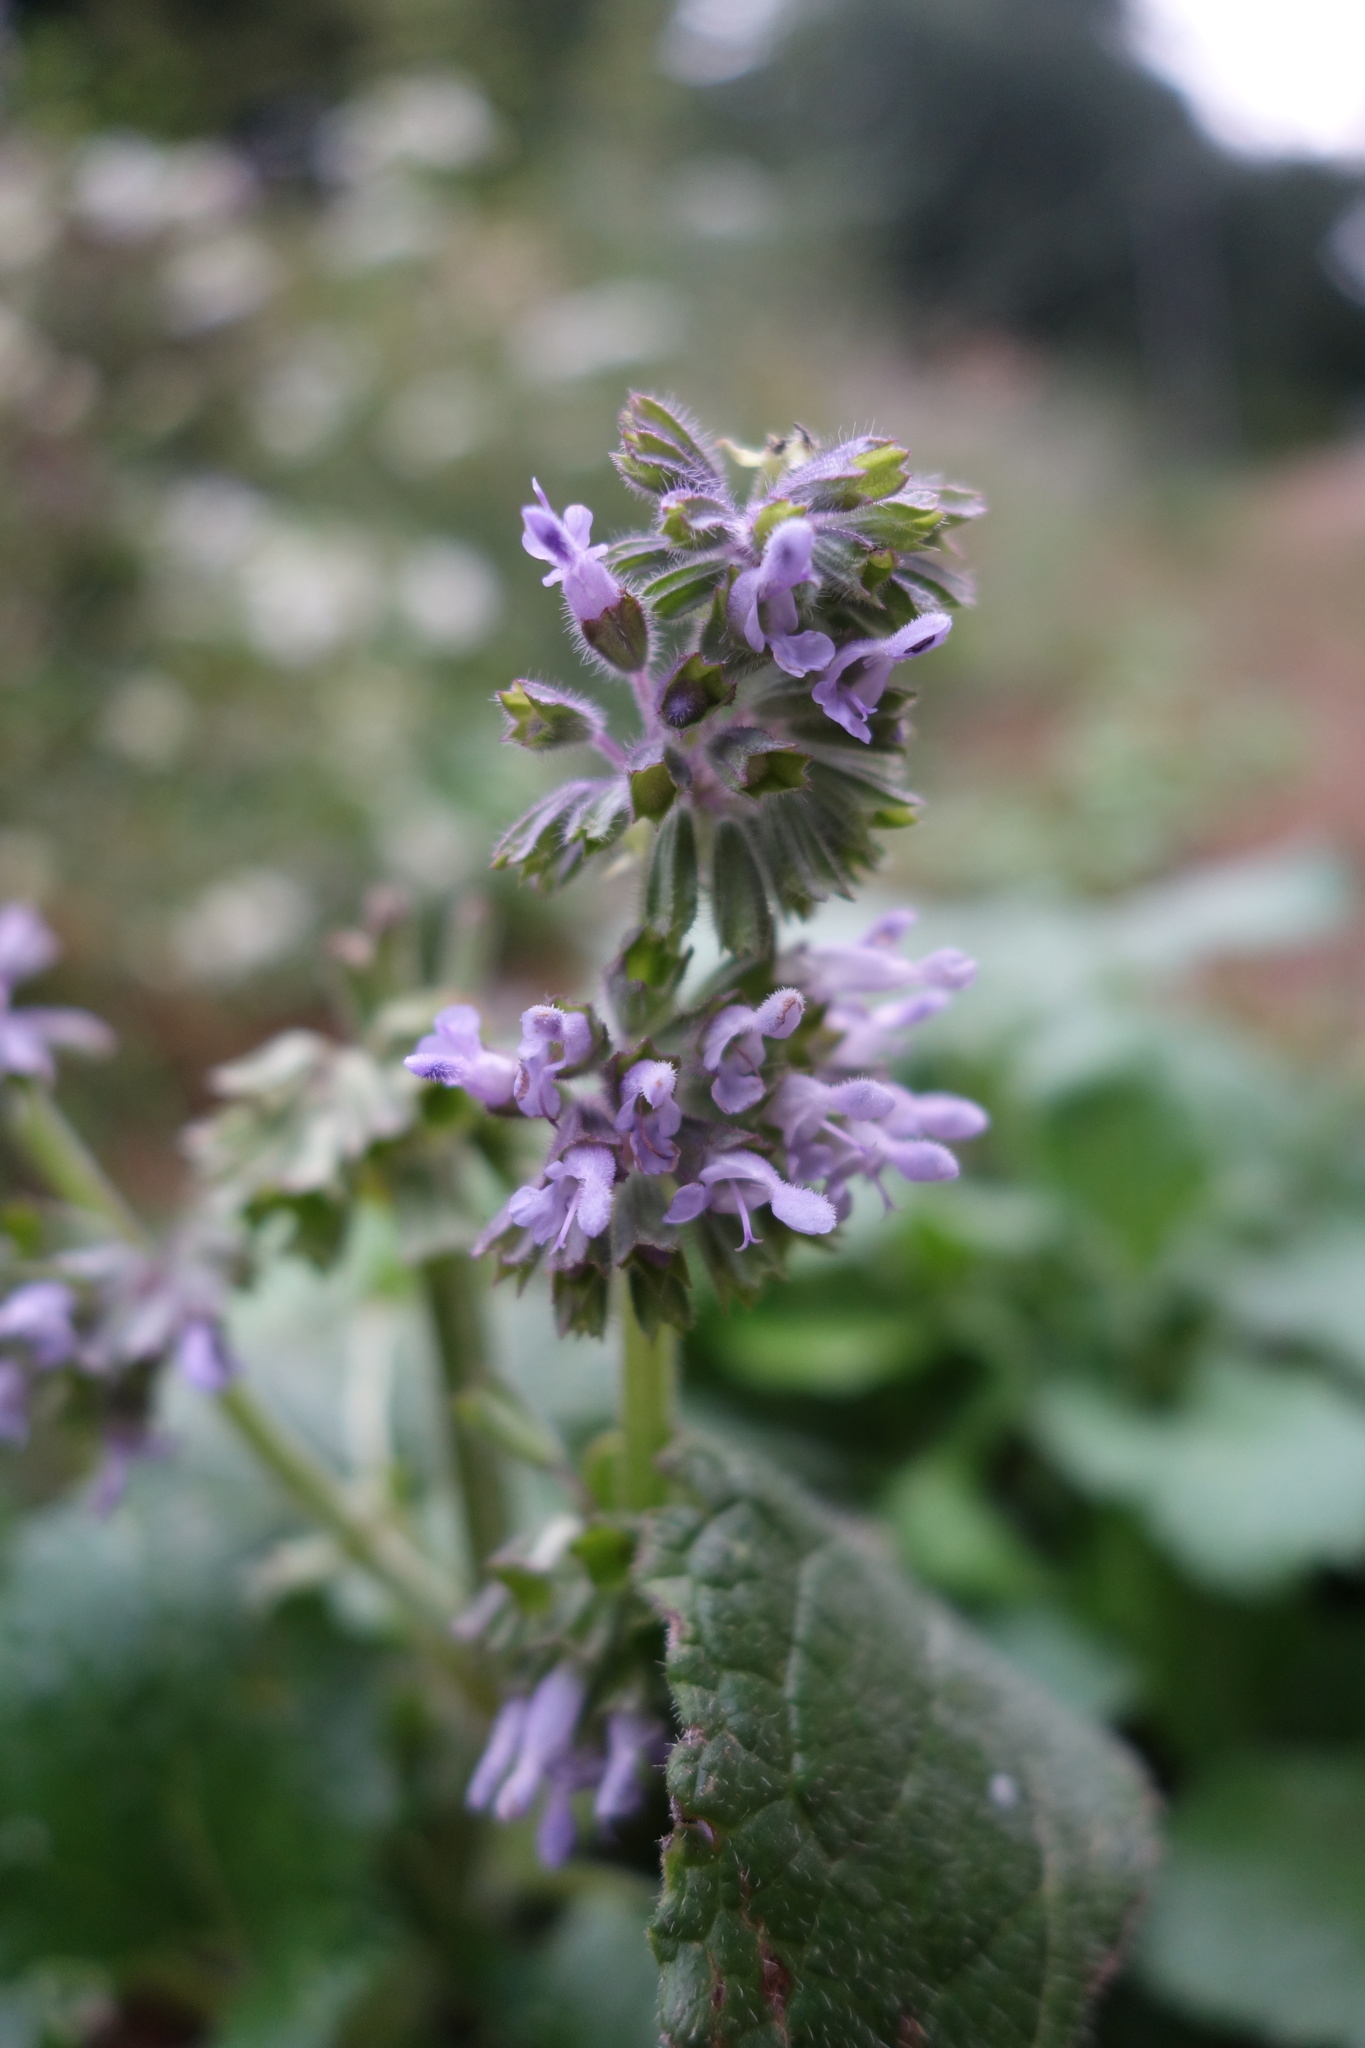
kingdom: Plantae
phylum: Tracheophyta
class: Magnoliopsida
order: Lamiales
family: Lamiaceae
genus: Salvia
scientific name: Salvia verticillata
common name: Whorled clary
